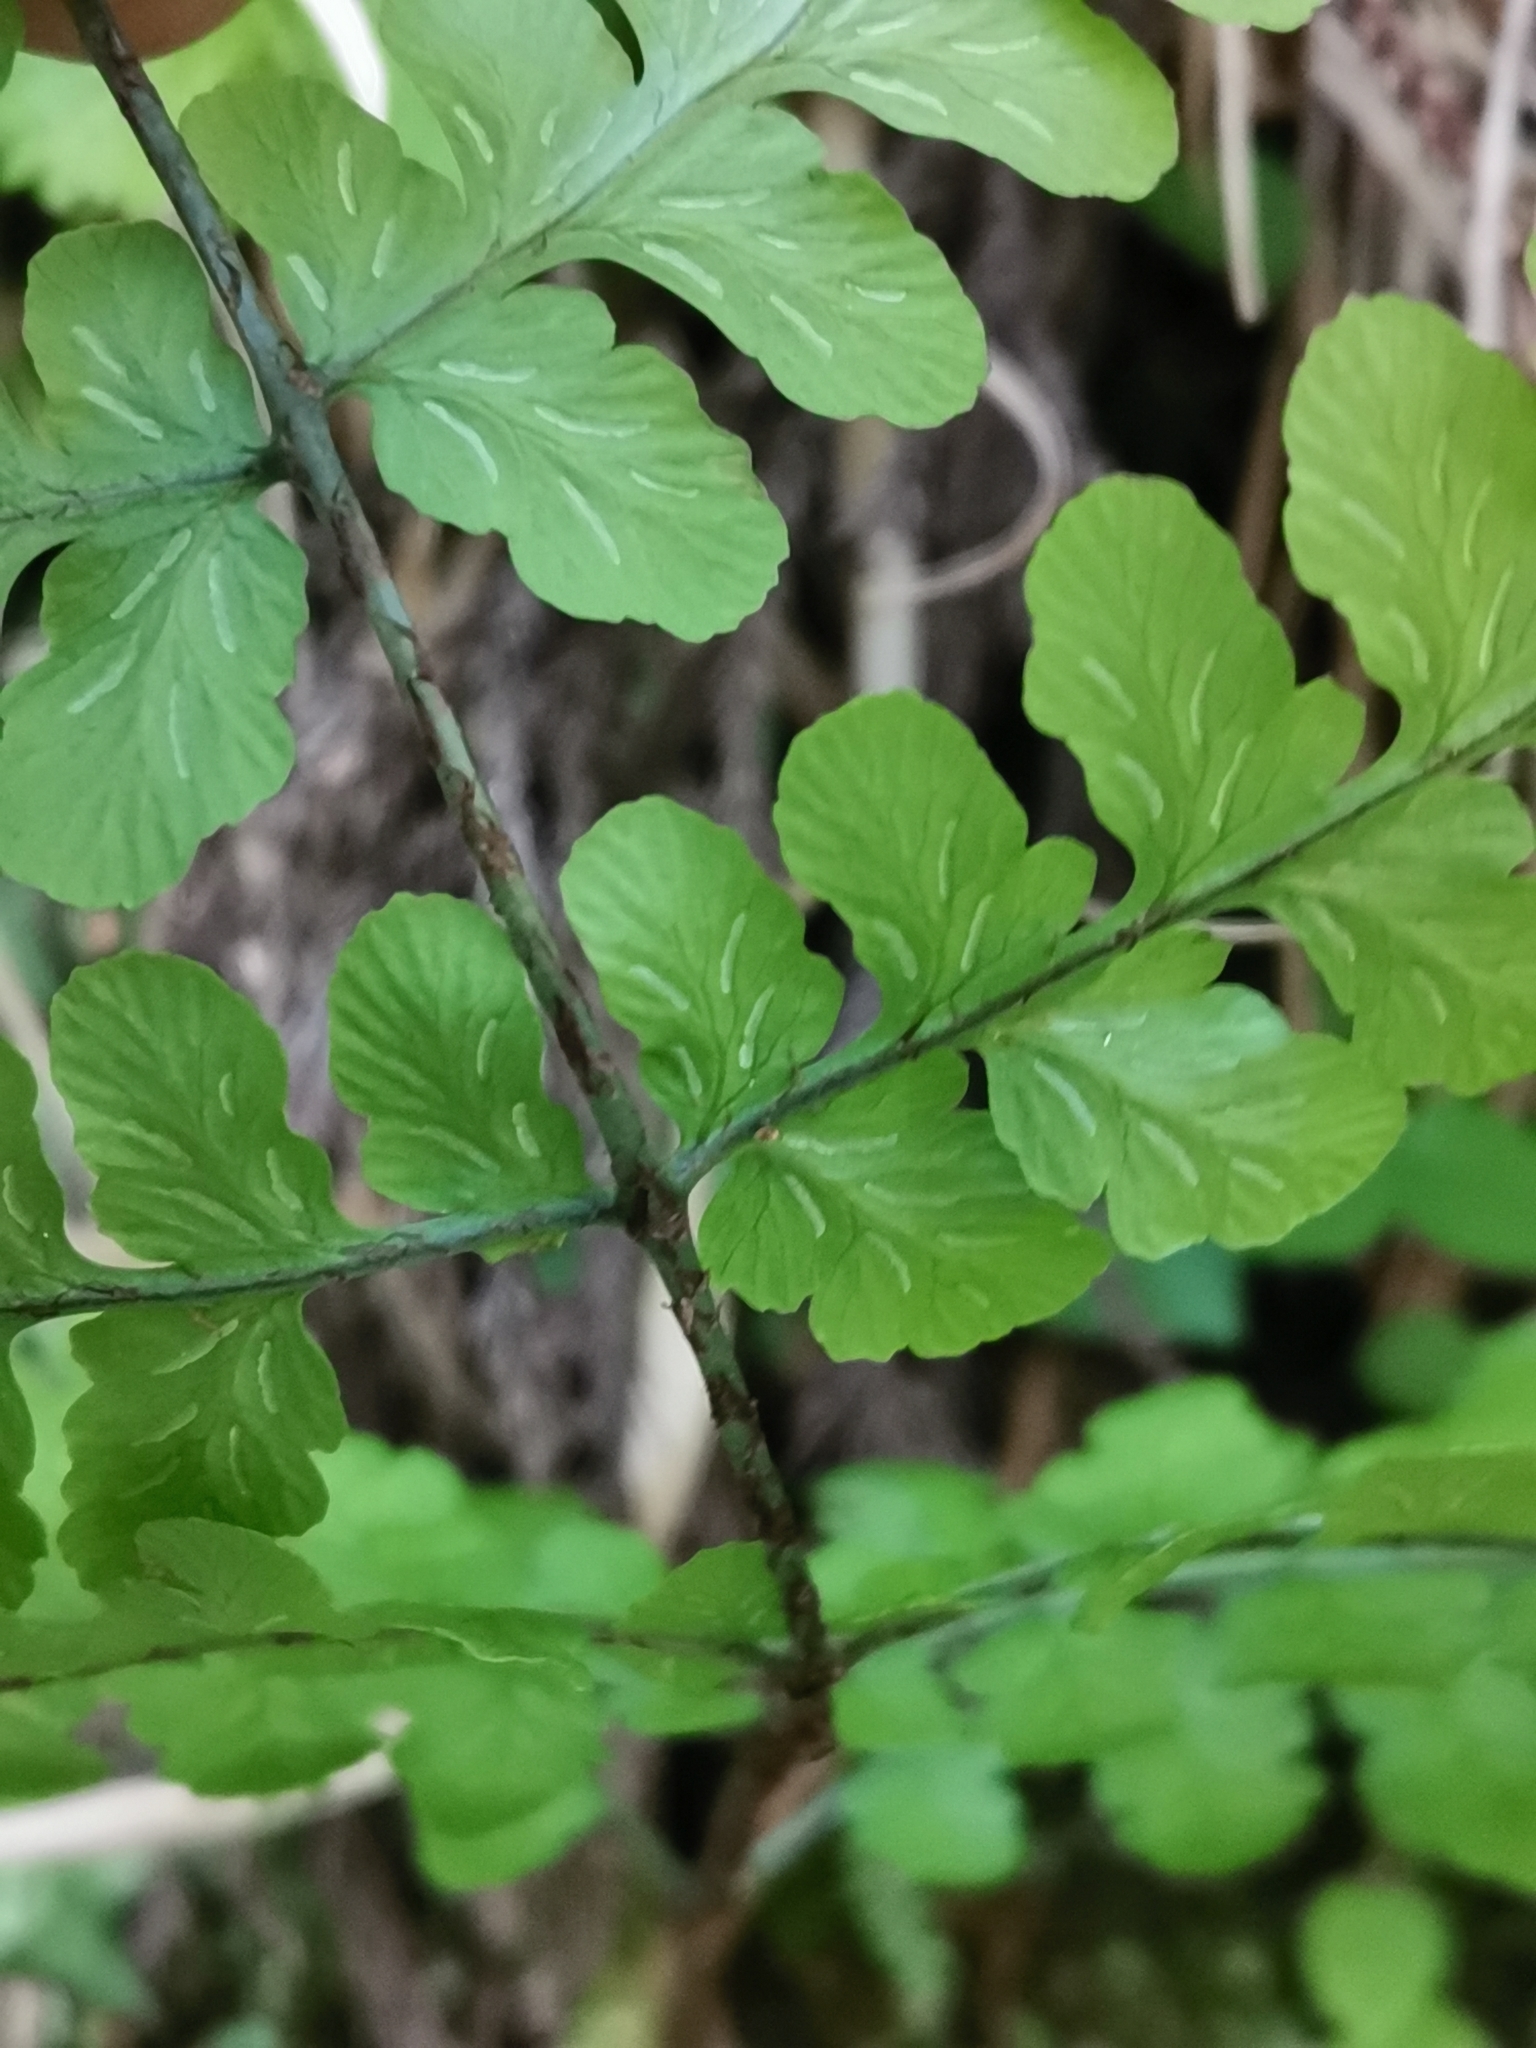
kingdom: Plantae
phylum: Tracheophyta
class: Polypodiopsida
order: Polypodiales
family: Athyriaceae
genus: Diplazium
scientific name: Diplazium squamigerum
